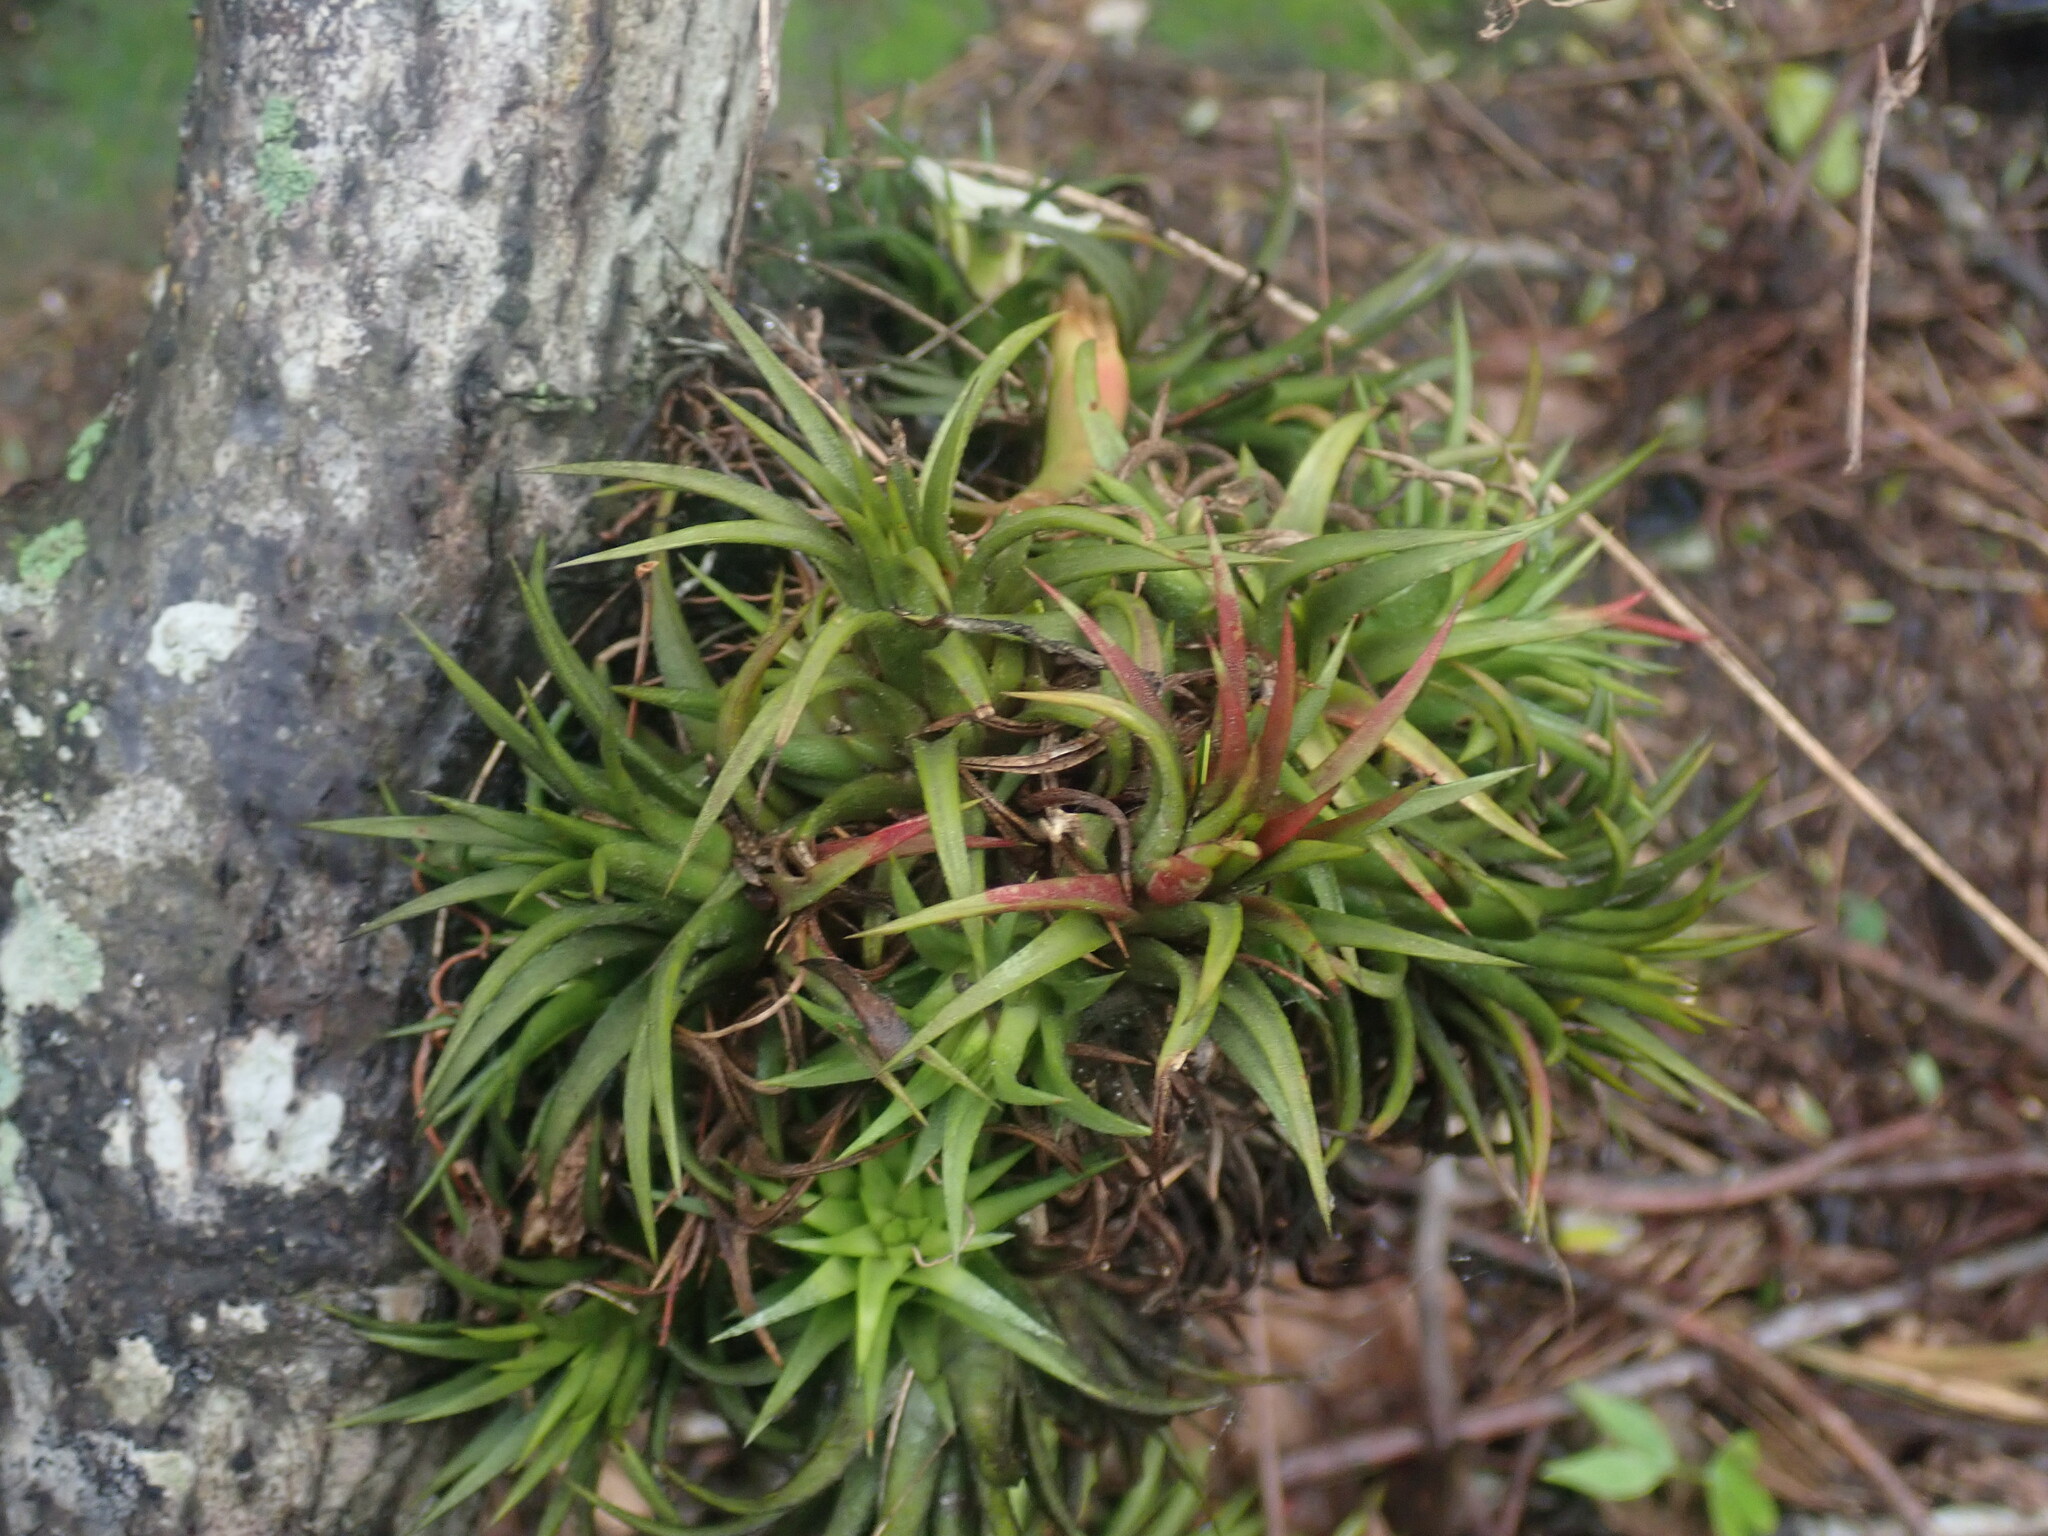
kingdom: Plantae
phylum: Tracheophyta
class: Liliopsida
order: Poales
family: Bromeliaceae
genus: Tillandsia
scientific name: Tillandsia ionantha
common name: Sky plant
